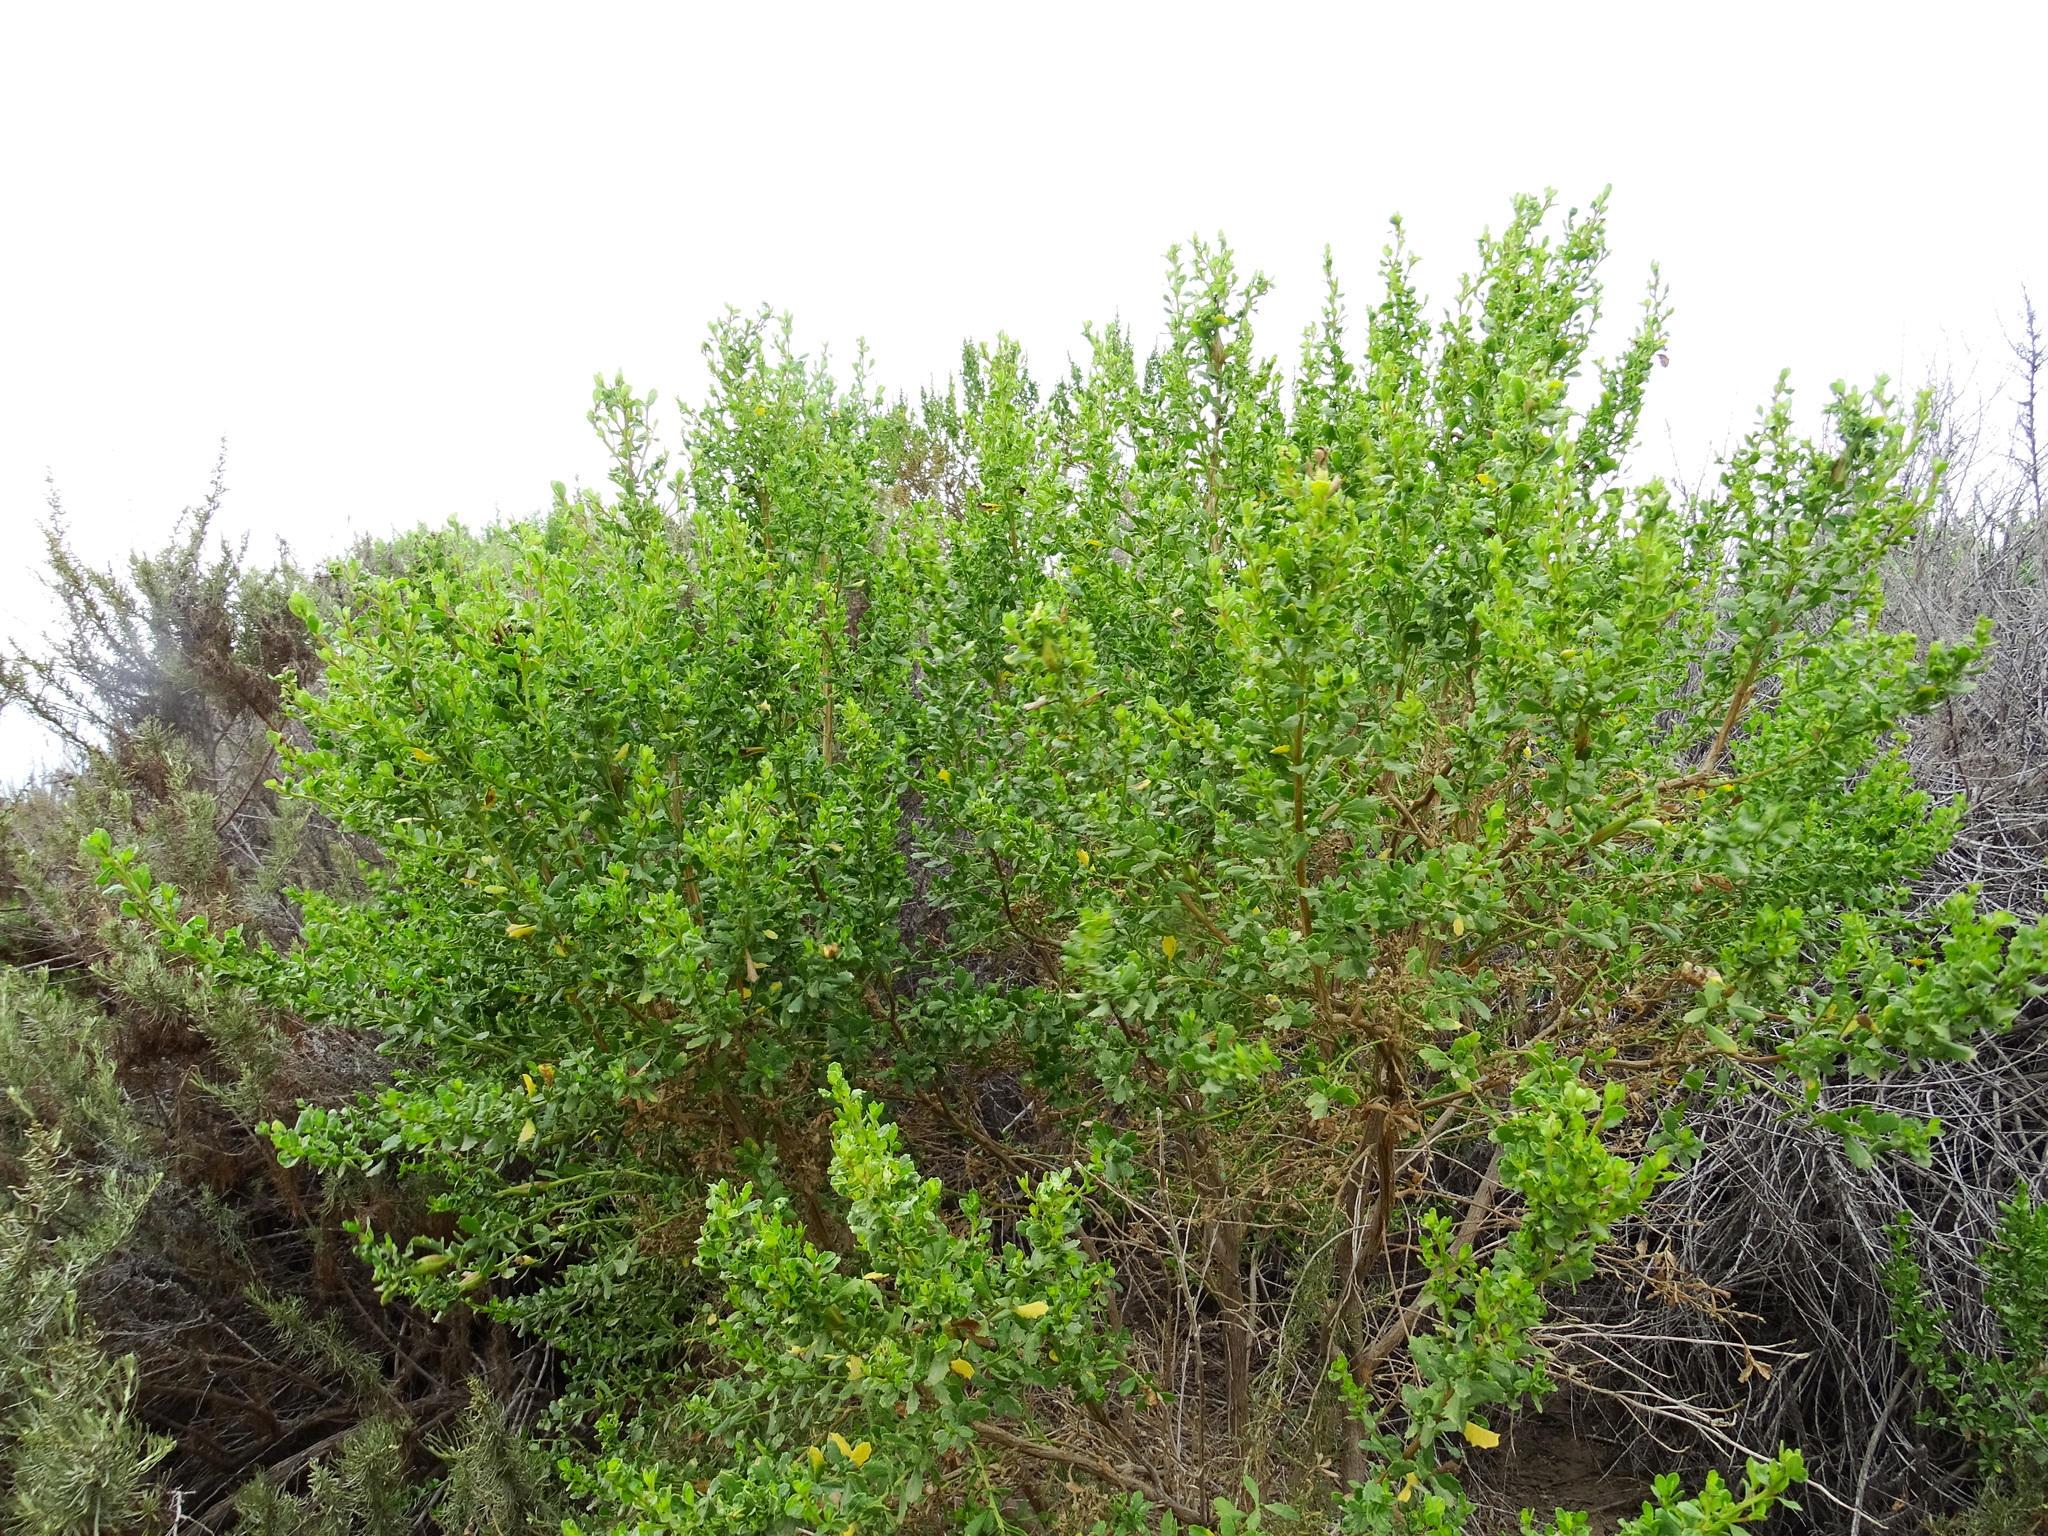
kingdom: Plantae
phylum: Tracheophyta
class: Magnoliopsida
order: Asterales
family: Asteraceae
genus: Baccharis
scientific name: Baccharis pilularis
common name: Coyotebrush
